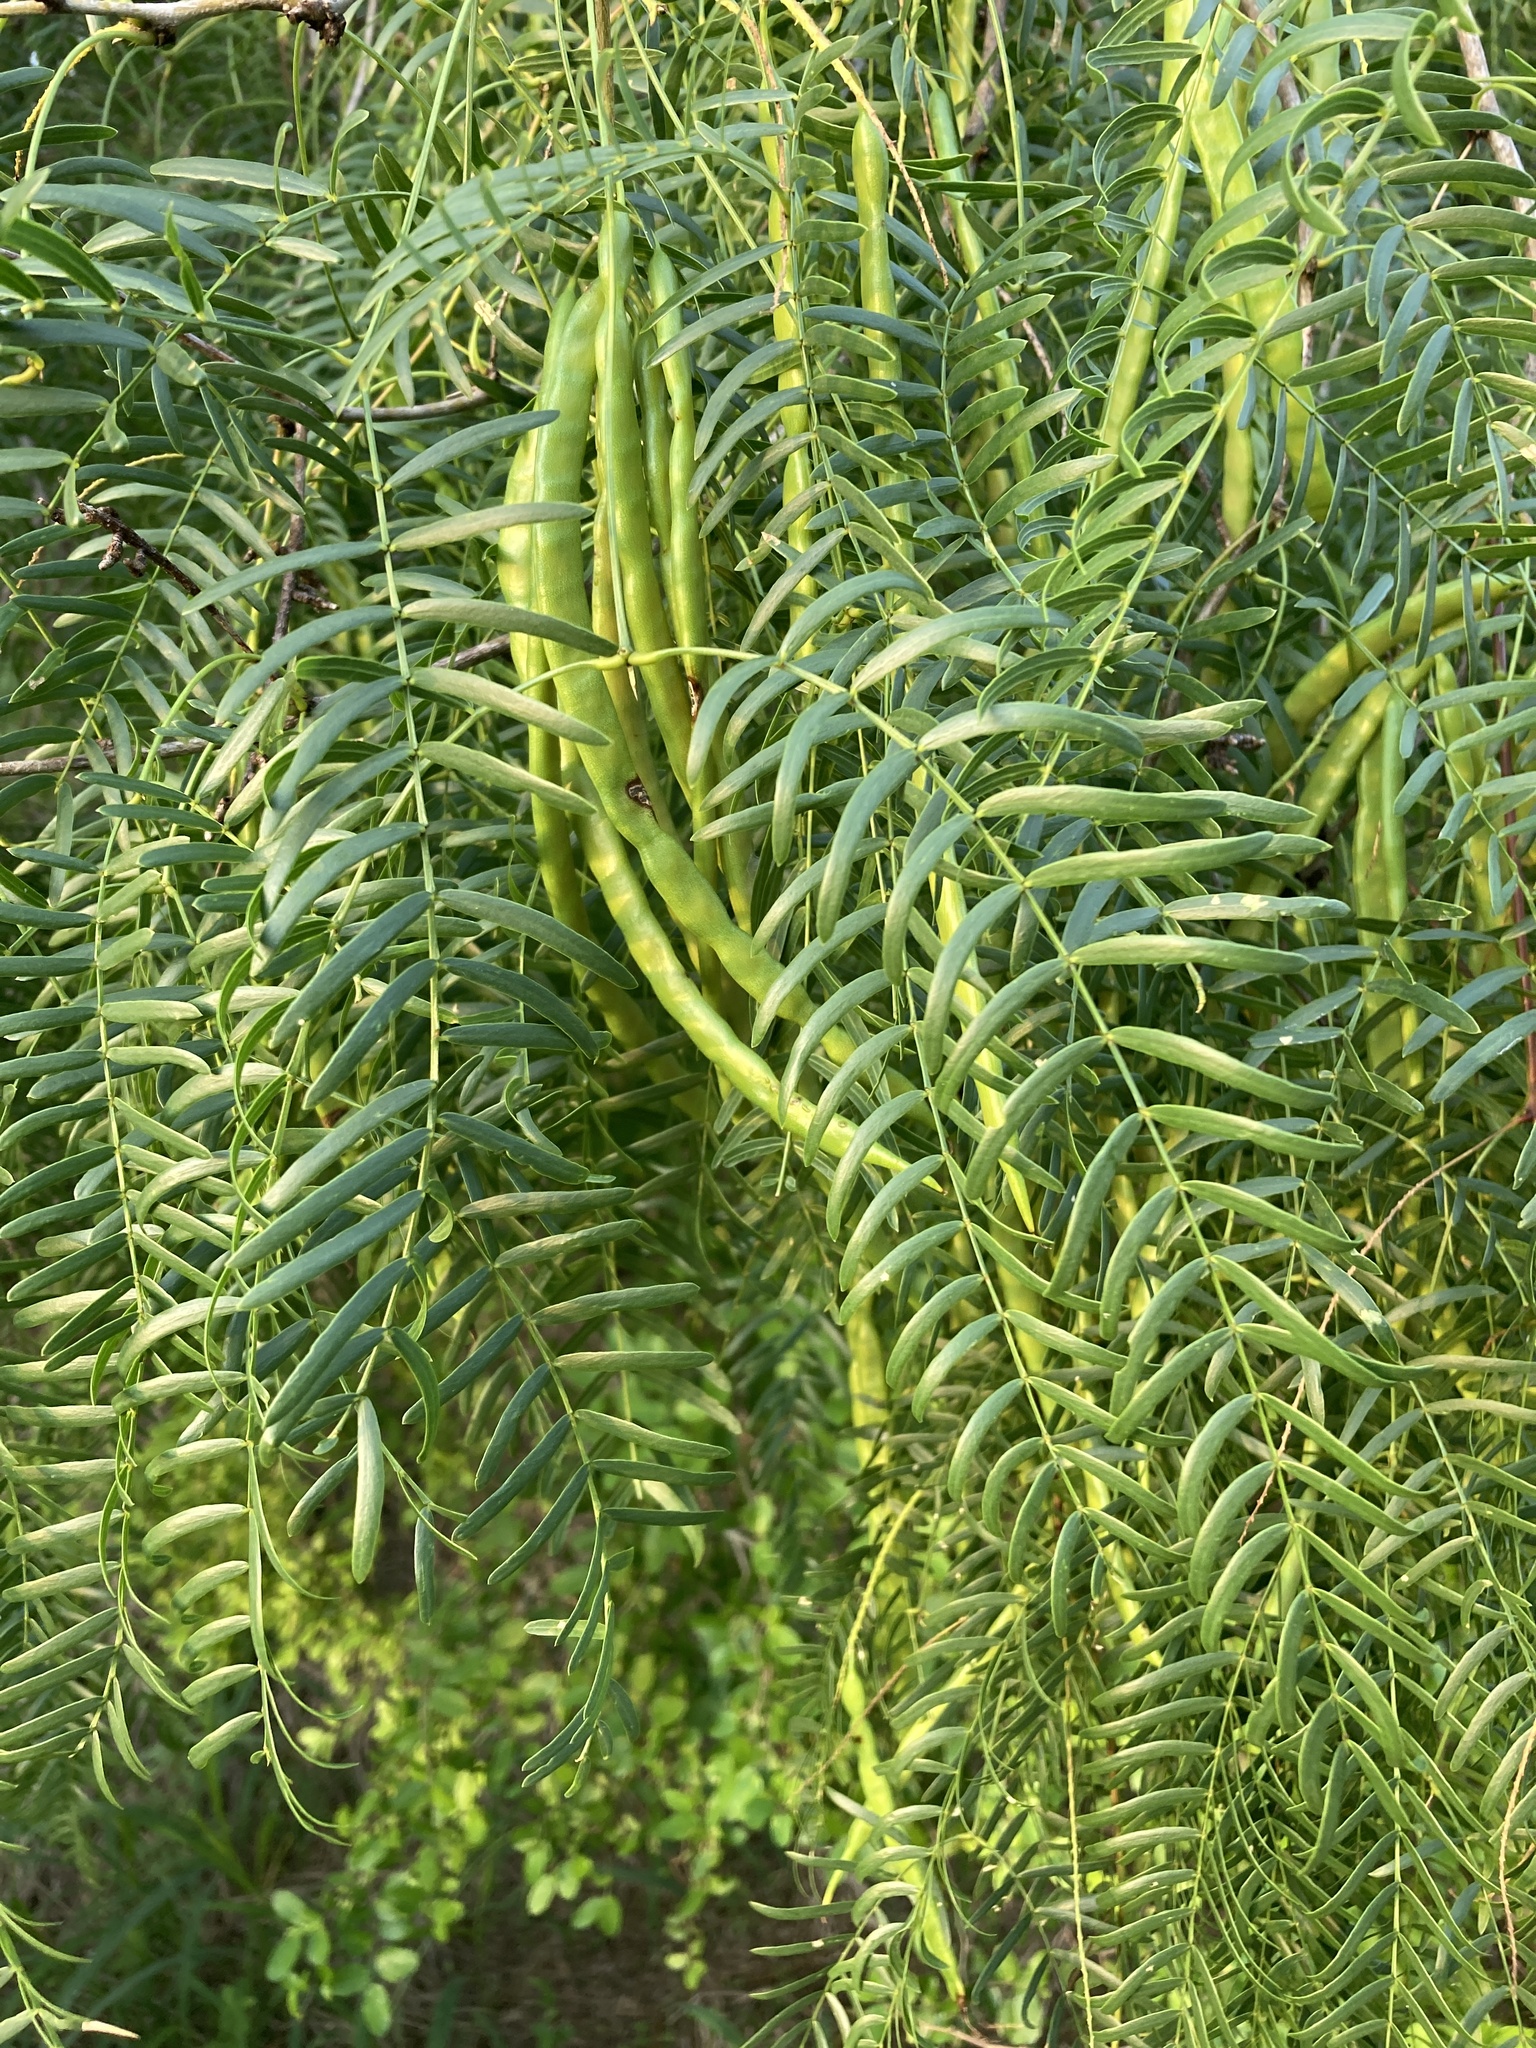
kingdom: Plantae
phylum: Tracheophyta
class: Magnoliopsida
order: Fabales
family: Fabaceae
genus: Prosopis
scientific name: Prosopis glandulosa
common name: Honey mesquite
